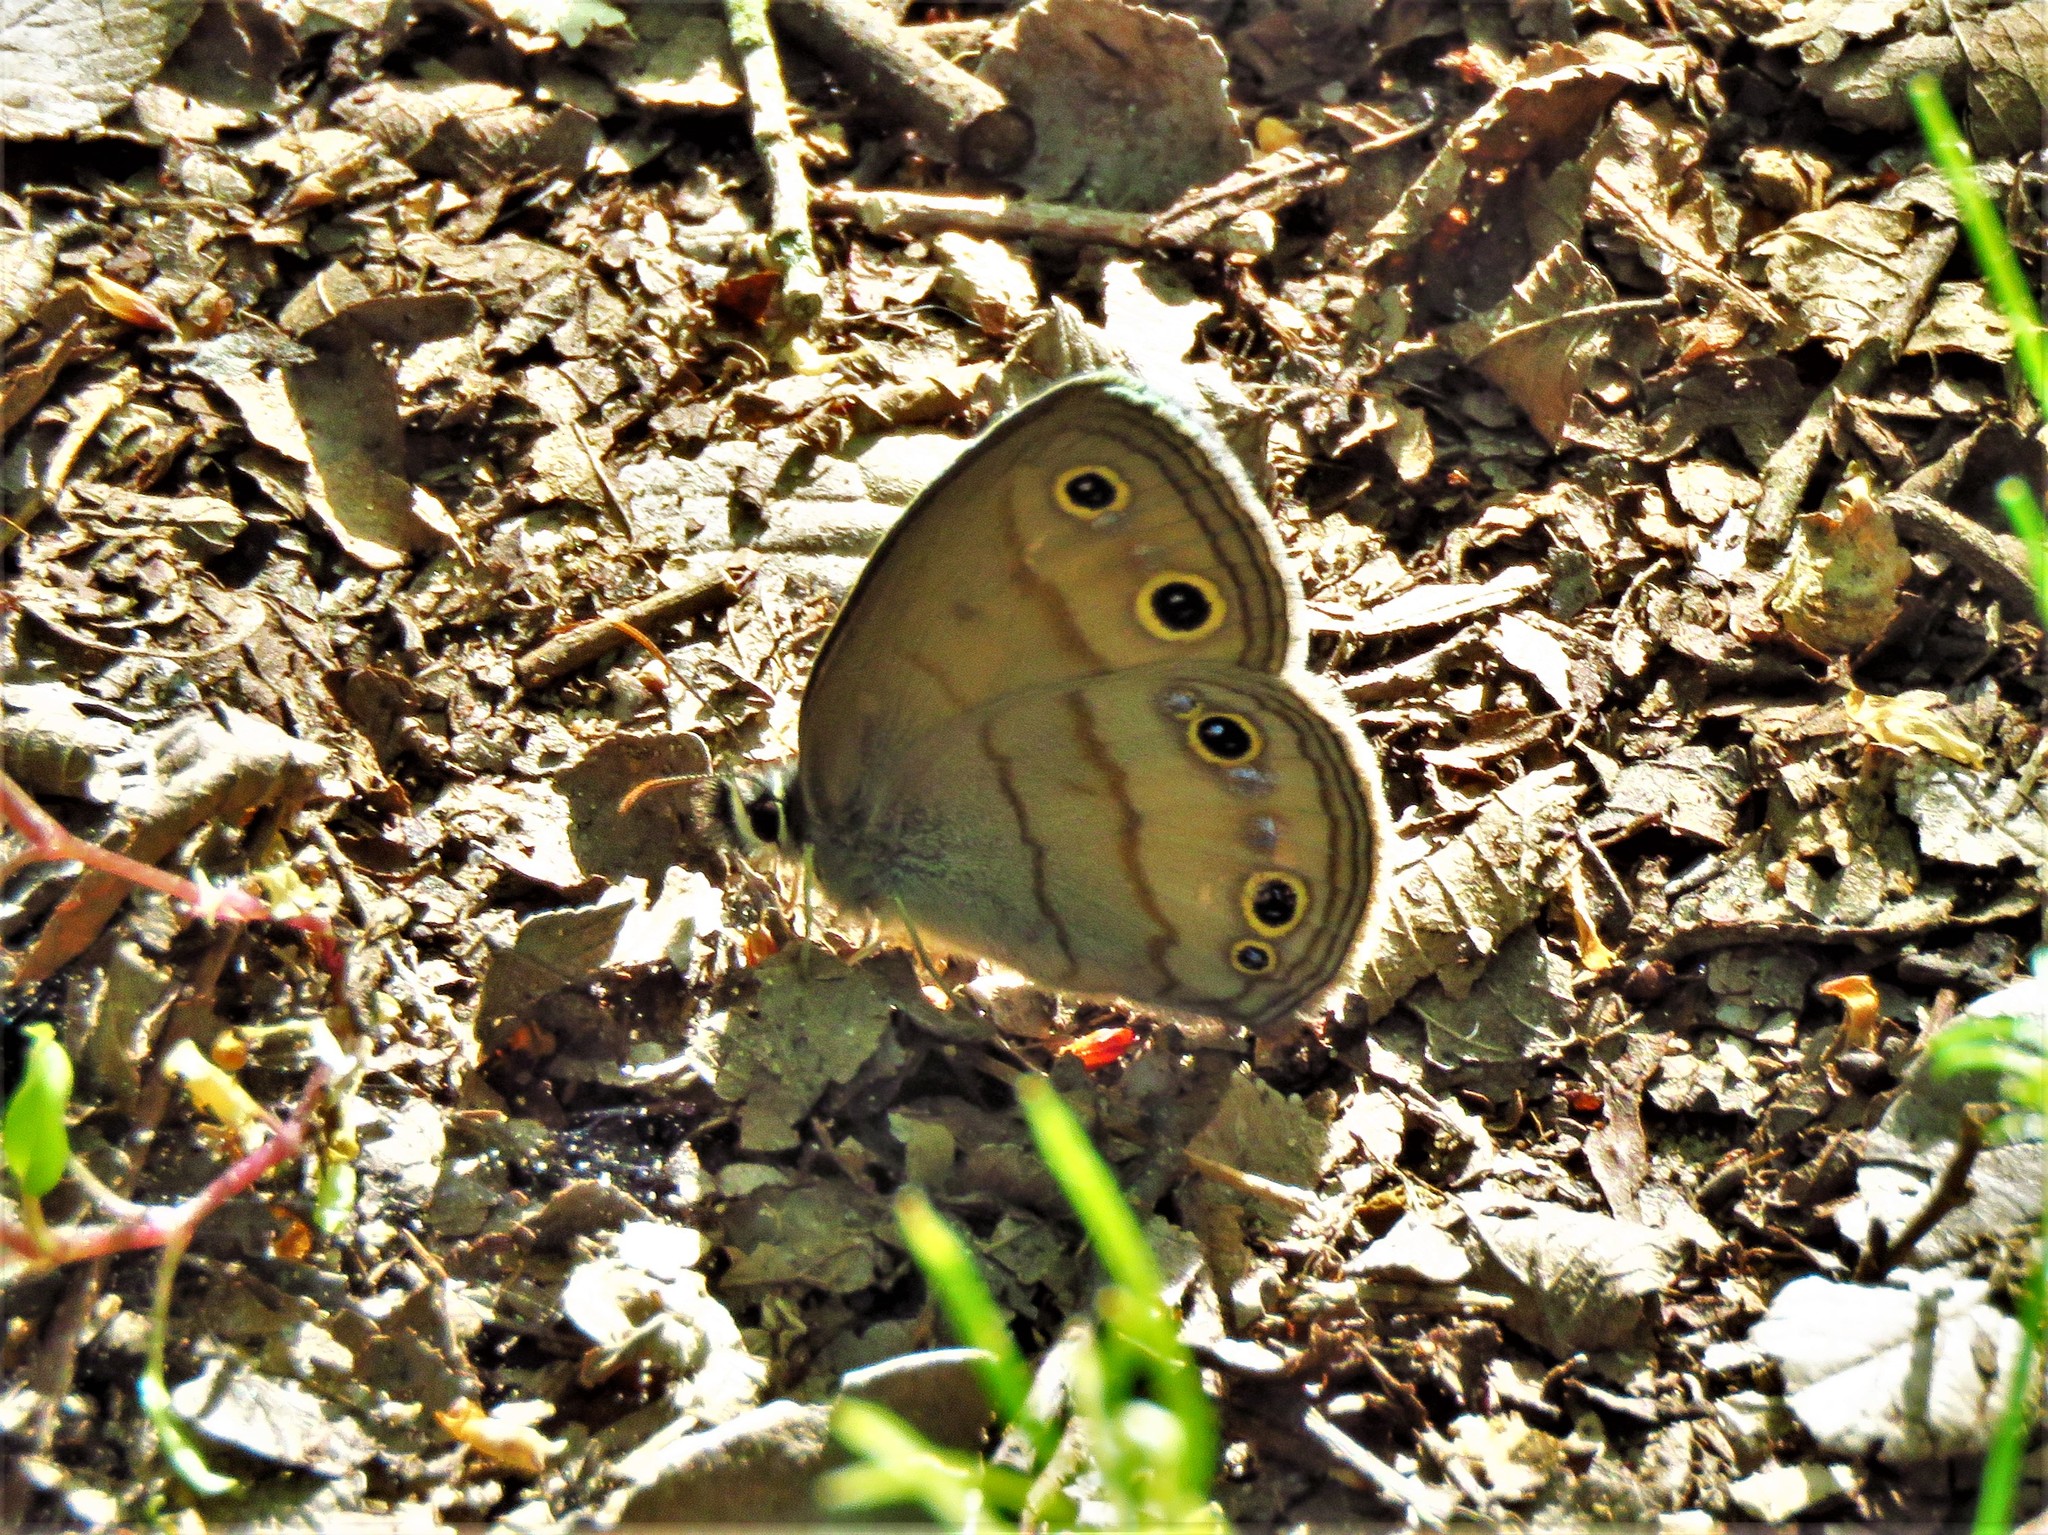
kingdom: Animalia
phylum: Arthropoda
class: Insecta
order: Lepidoptera
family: Nymphalidae
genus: Euptychia
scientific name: Euptychia cymela
